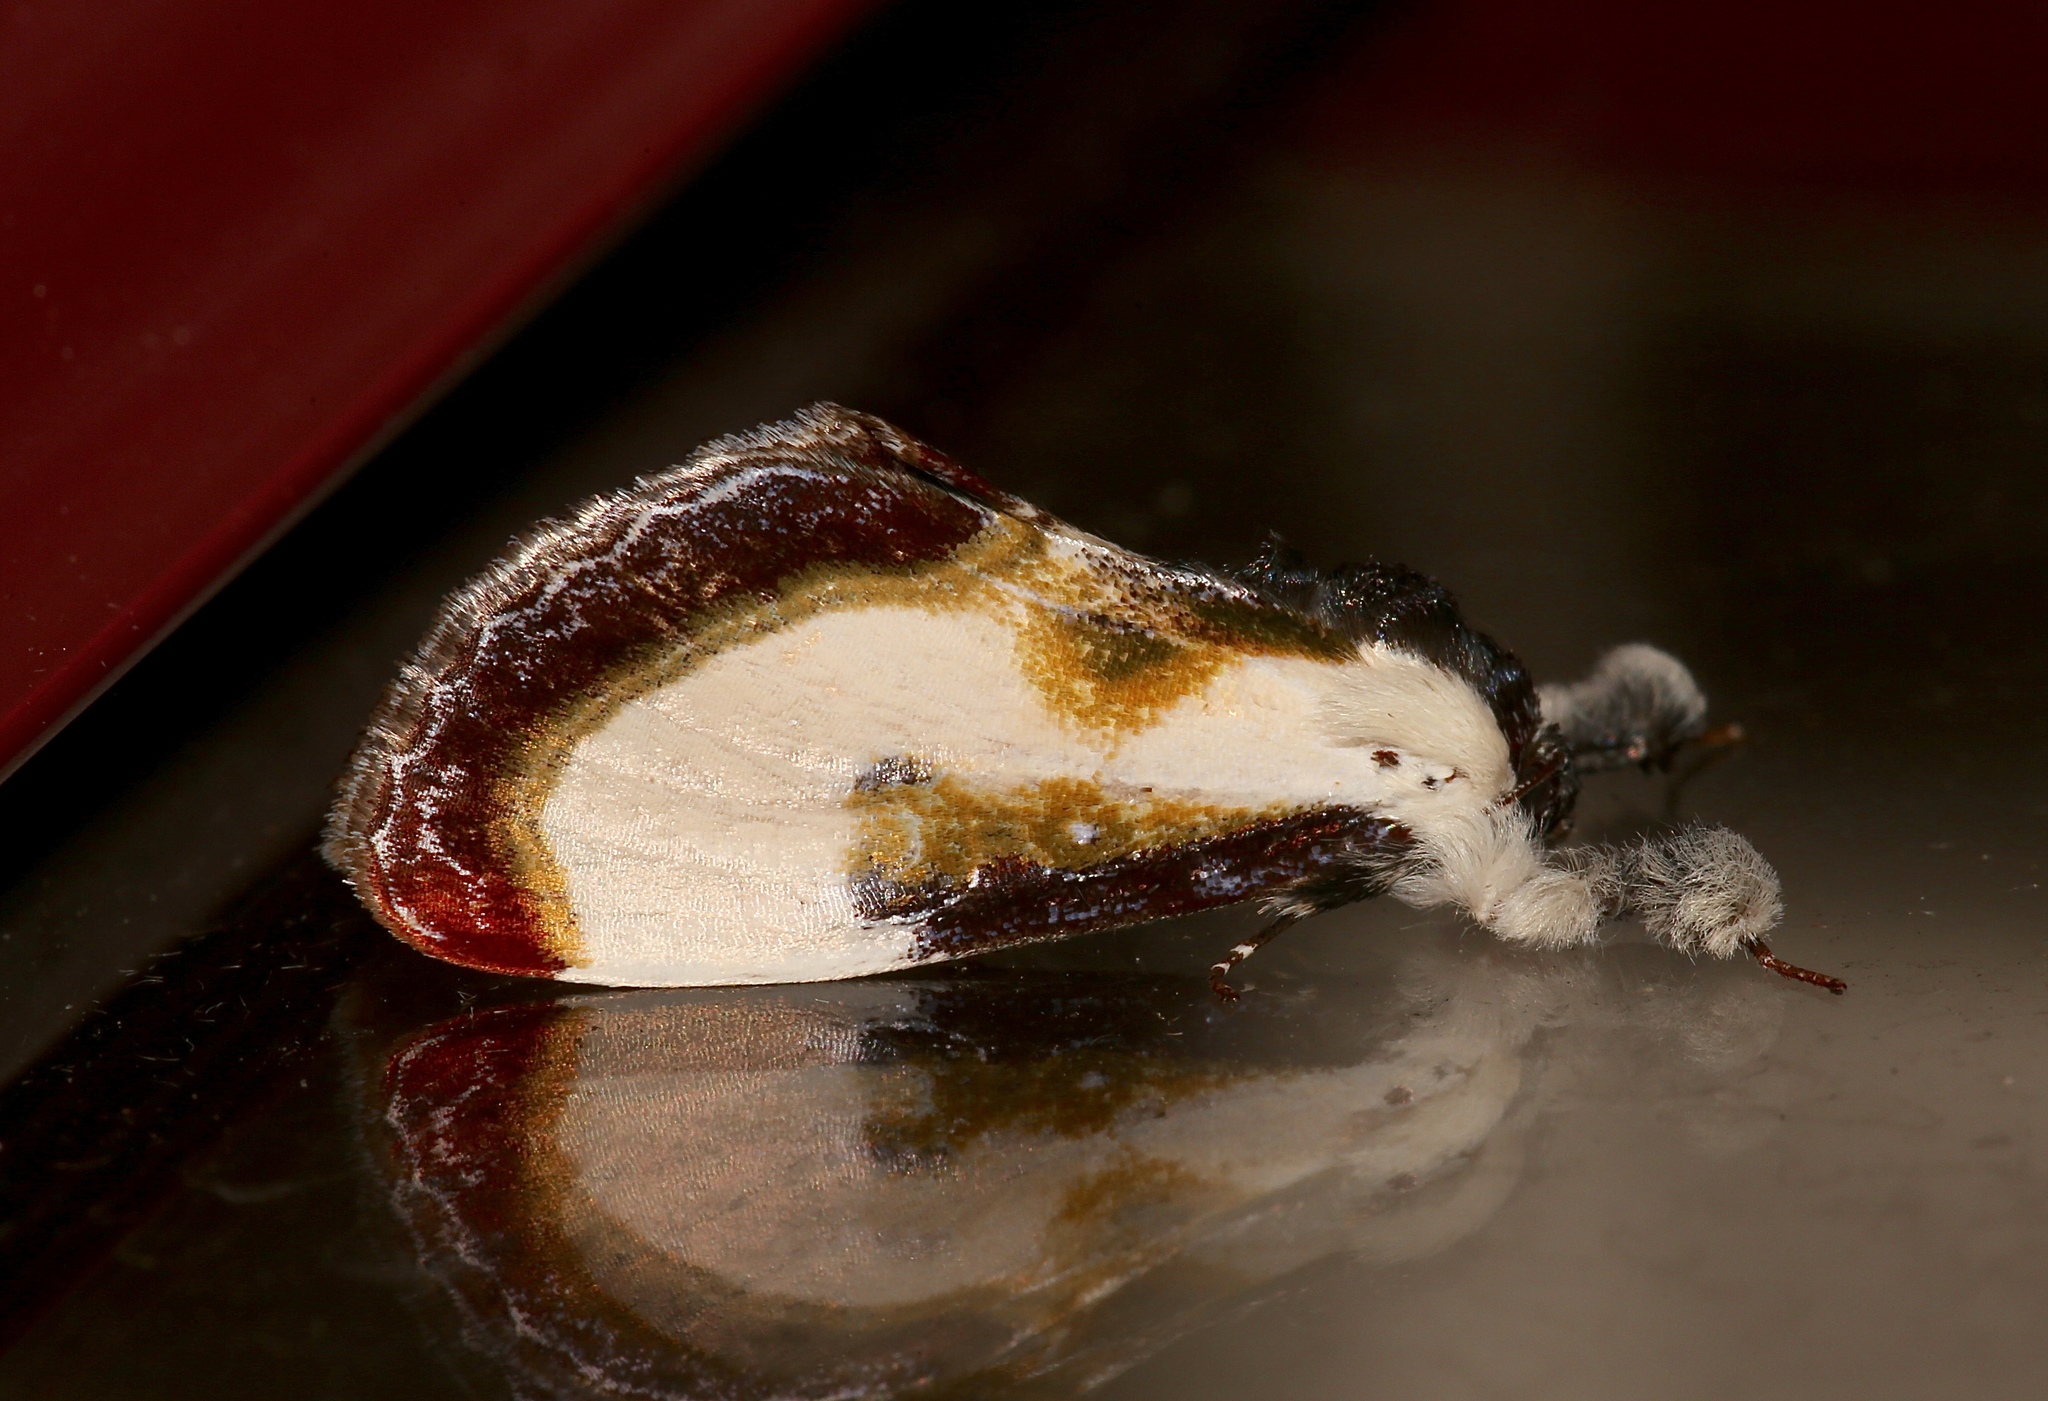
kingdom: Animalia
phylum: Arthropoda
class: Insecta
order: Lepidoptera
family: Noctuidae
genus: Eudryas
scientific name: Eudryas grata
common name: Beautiful wood-nymph
